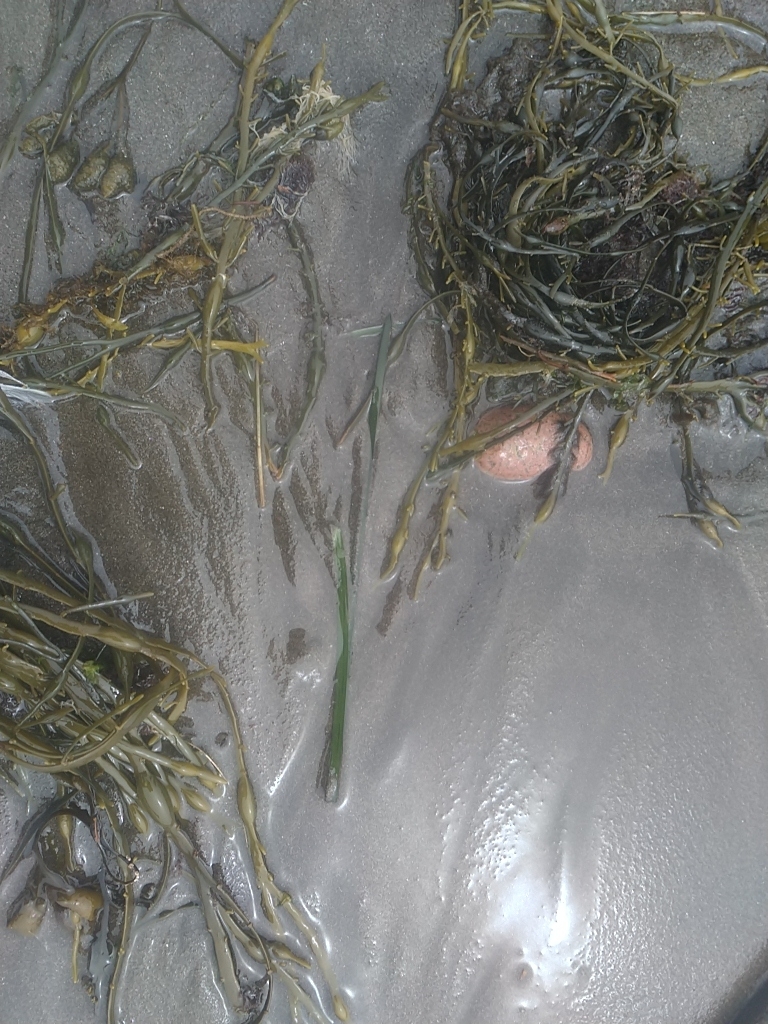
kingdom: Plantae
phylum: Tracheophyta
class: Liliopsida
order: Alismatales
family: Zosteraceae
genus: Zostera
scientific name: Zostera marina
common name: Eelgrass
